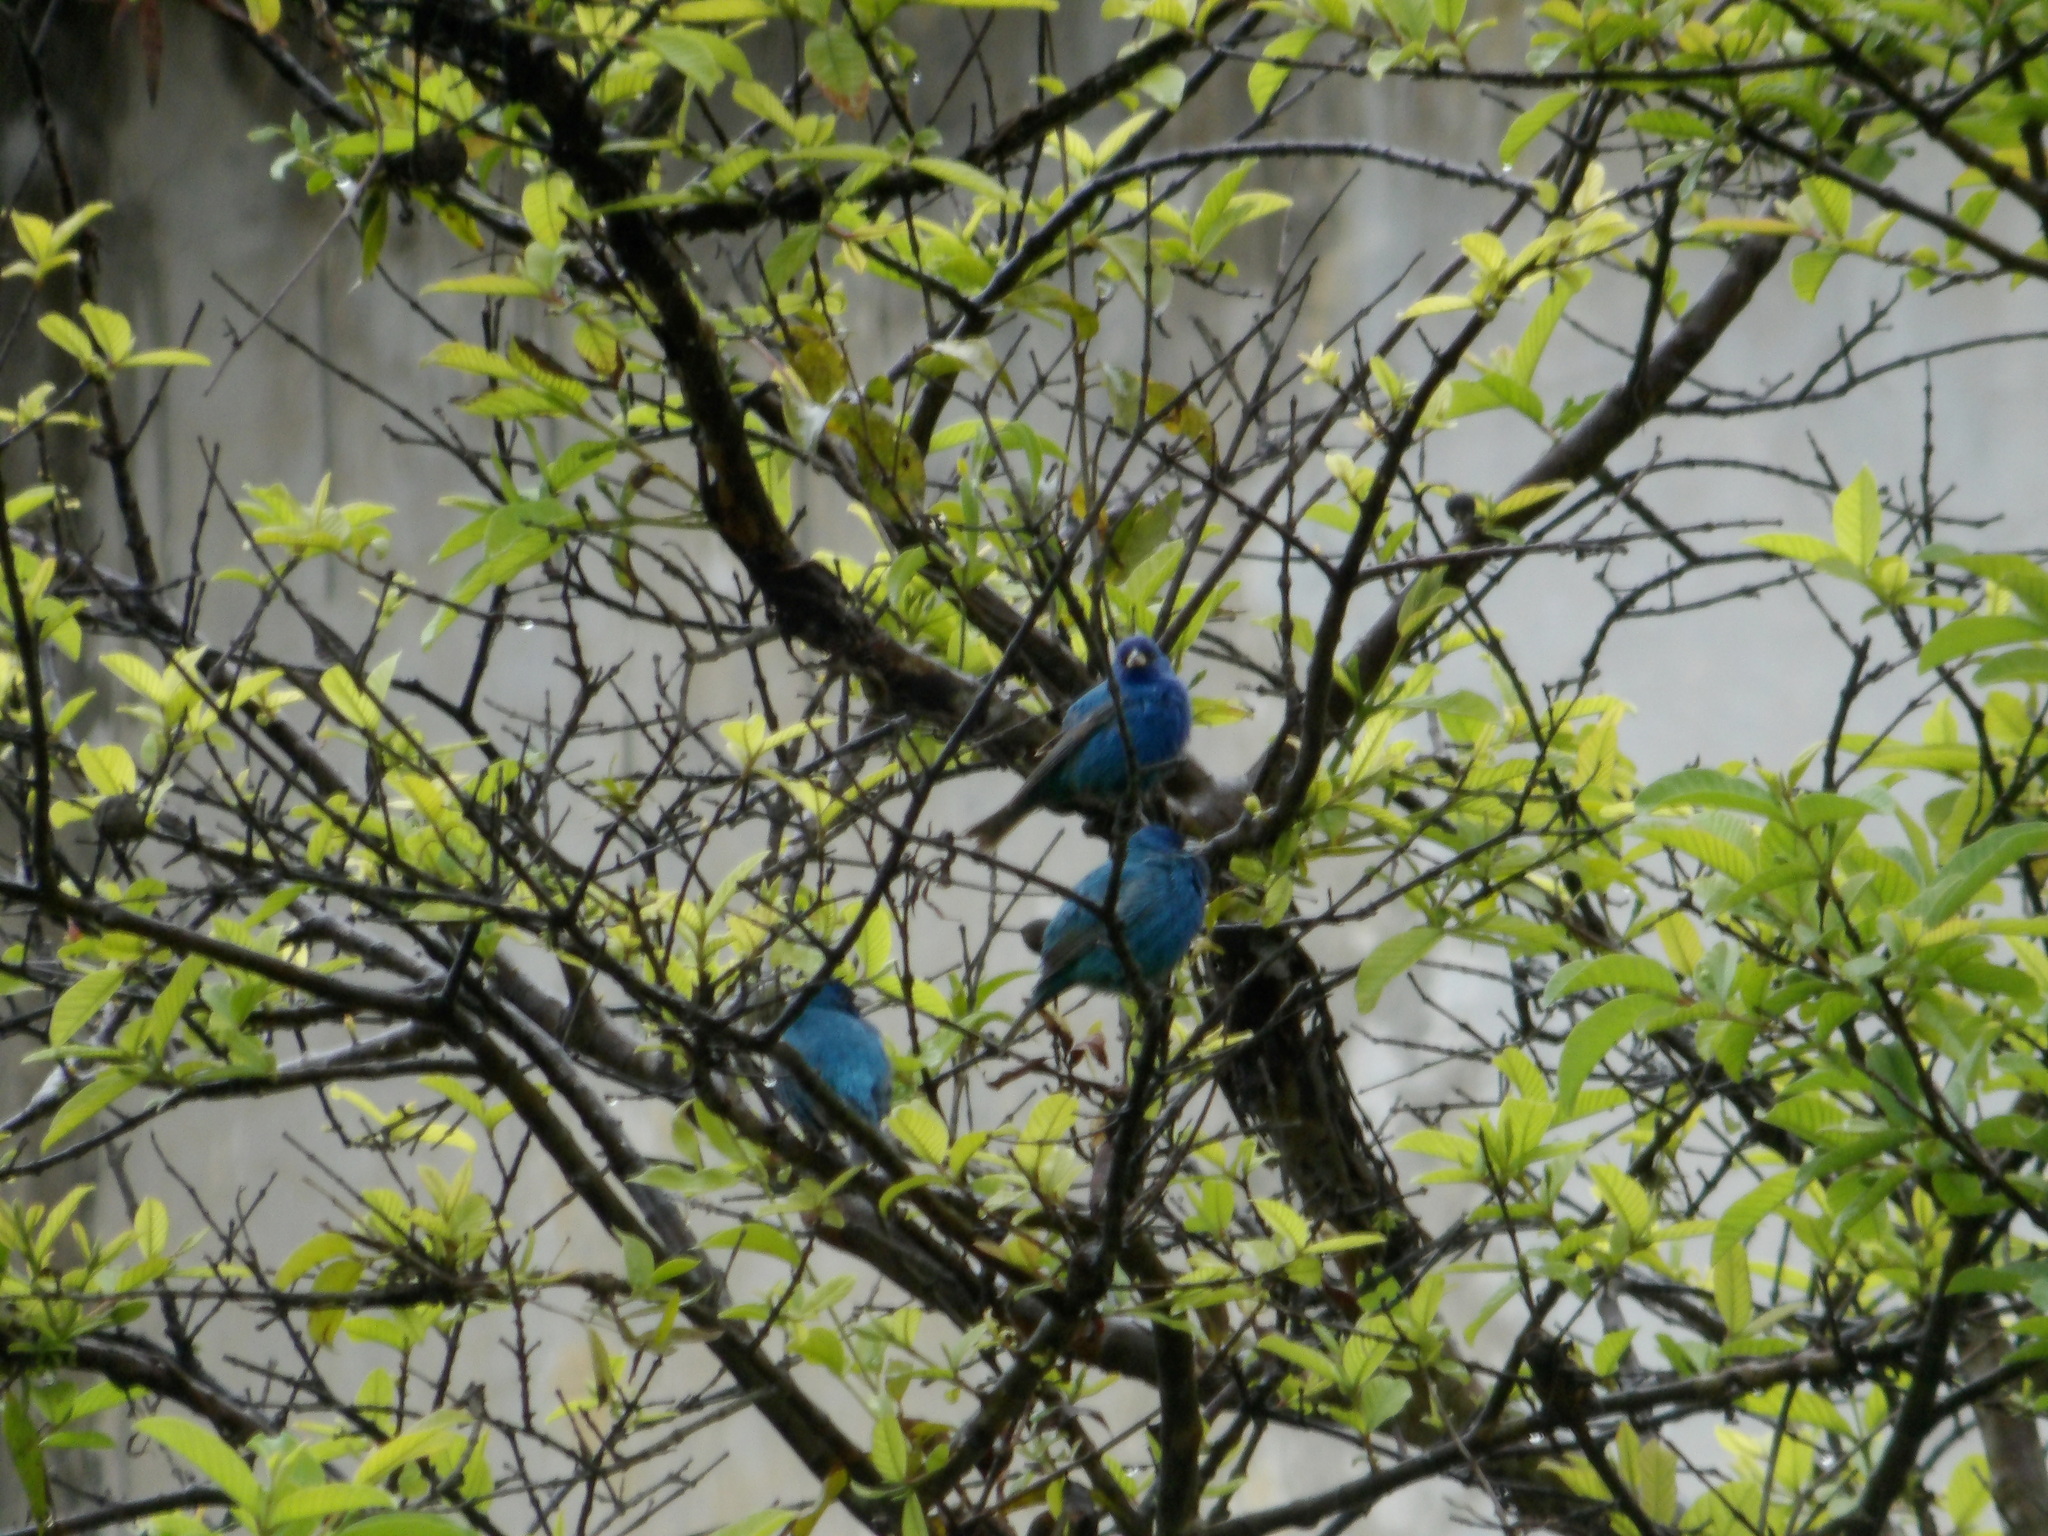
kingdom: Animalia
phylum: Chordata
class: Aves
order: Passeriformes
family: Cardinalidae
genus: Passerina
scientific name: Passerina cyanea
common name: Indigo bunting
